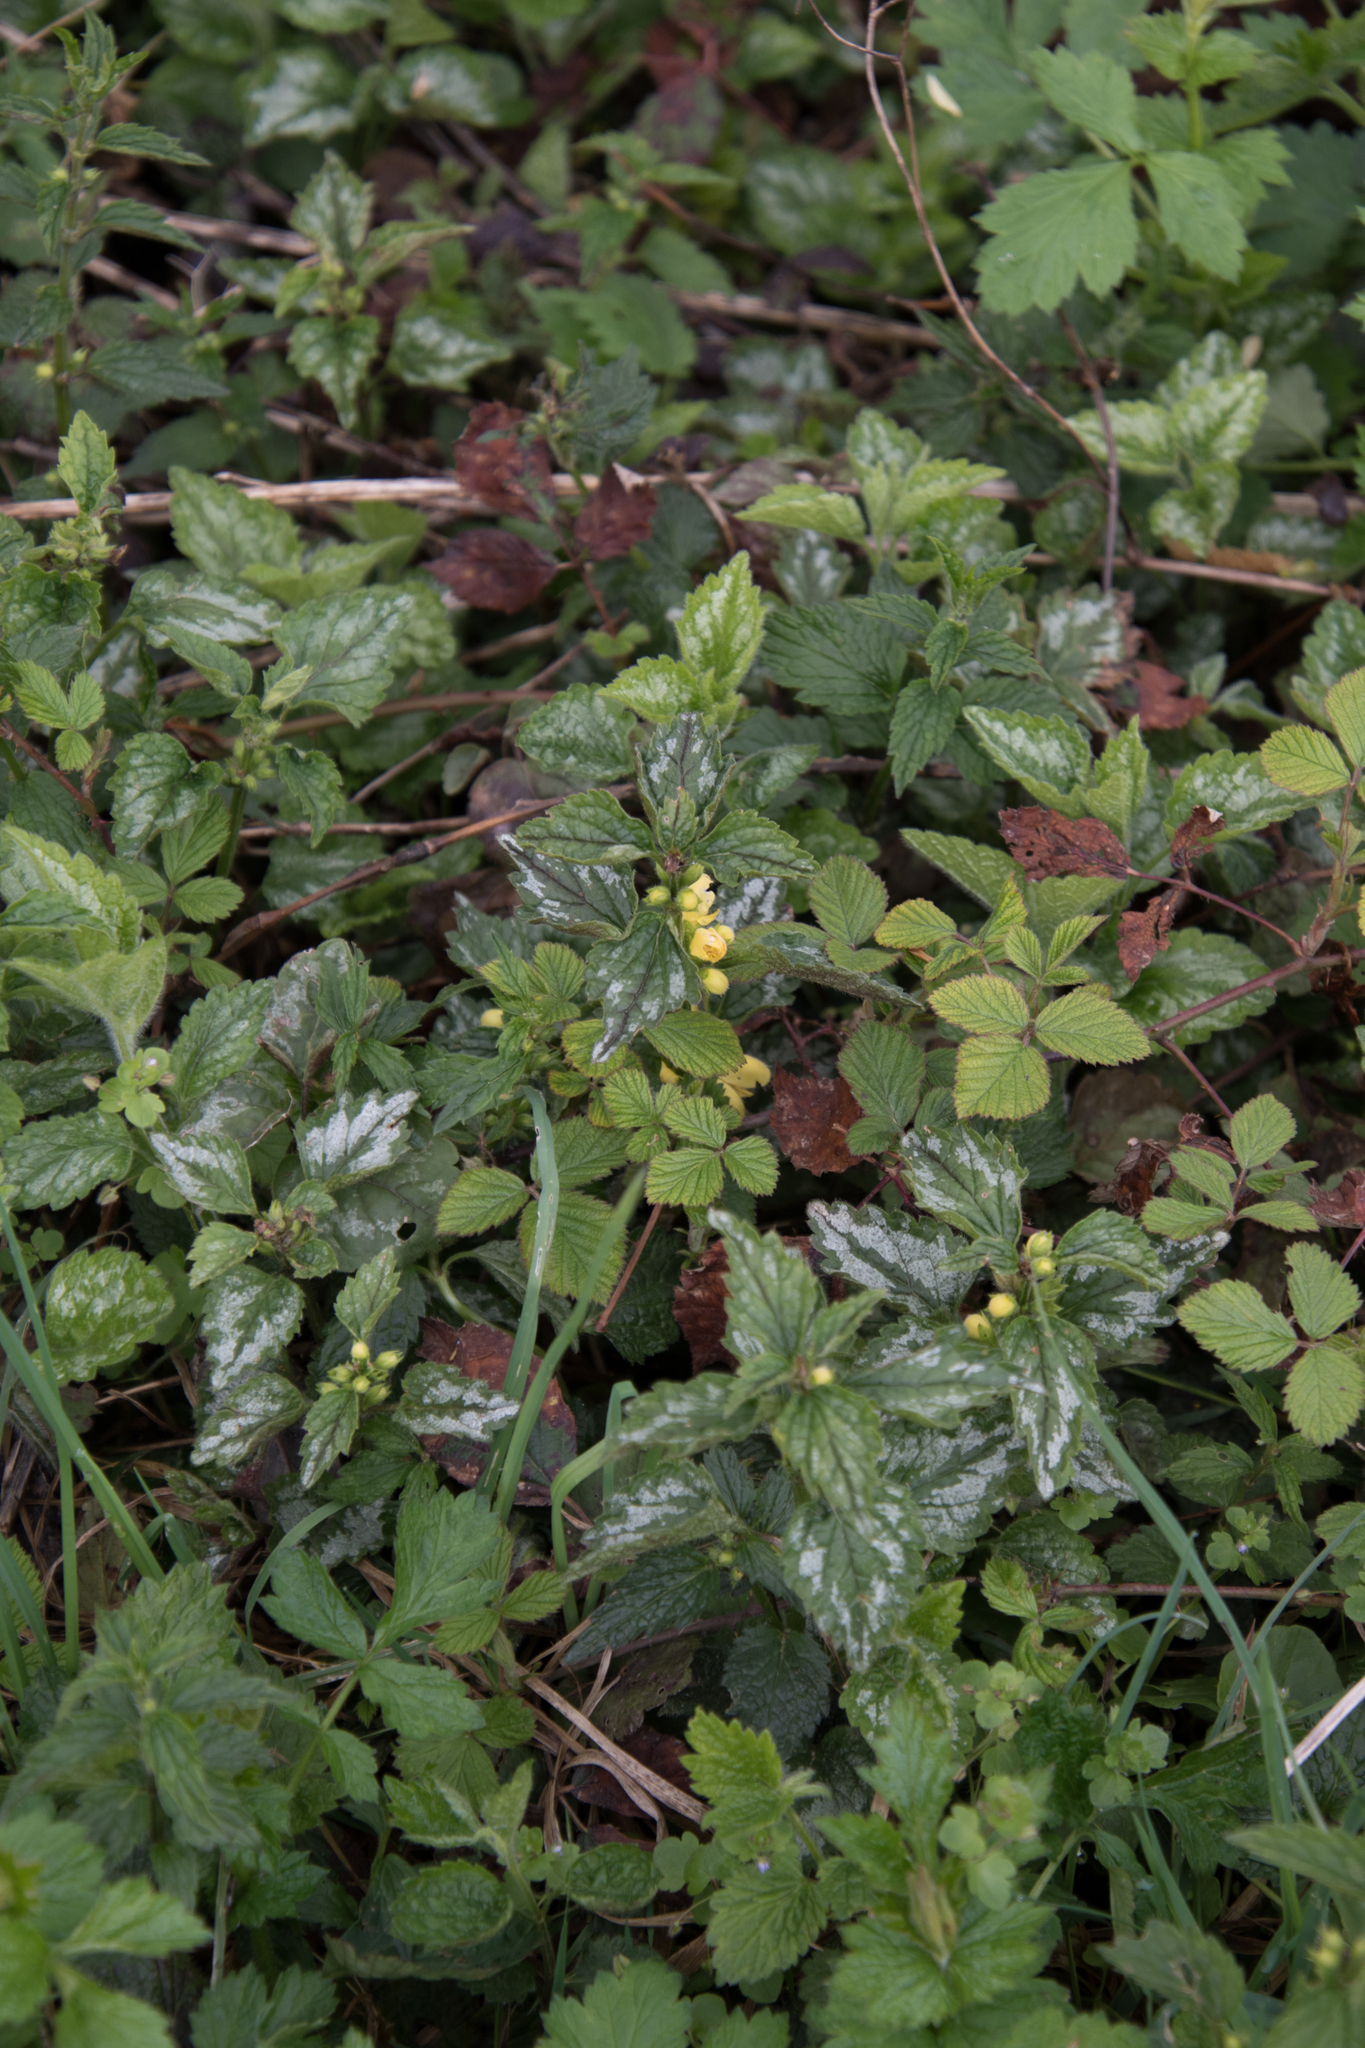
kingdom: Plantae
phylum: Tracheophyta
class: Magnoliopsida
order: Lamiales
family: Lamiaceae
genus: Lamium
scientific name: Lamium galeobdolon
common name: Yellow archangel
